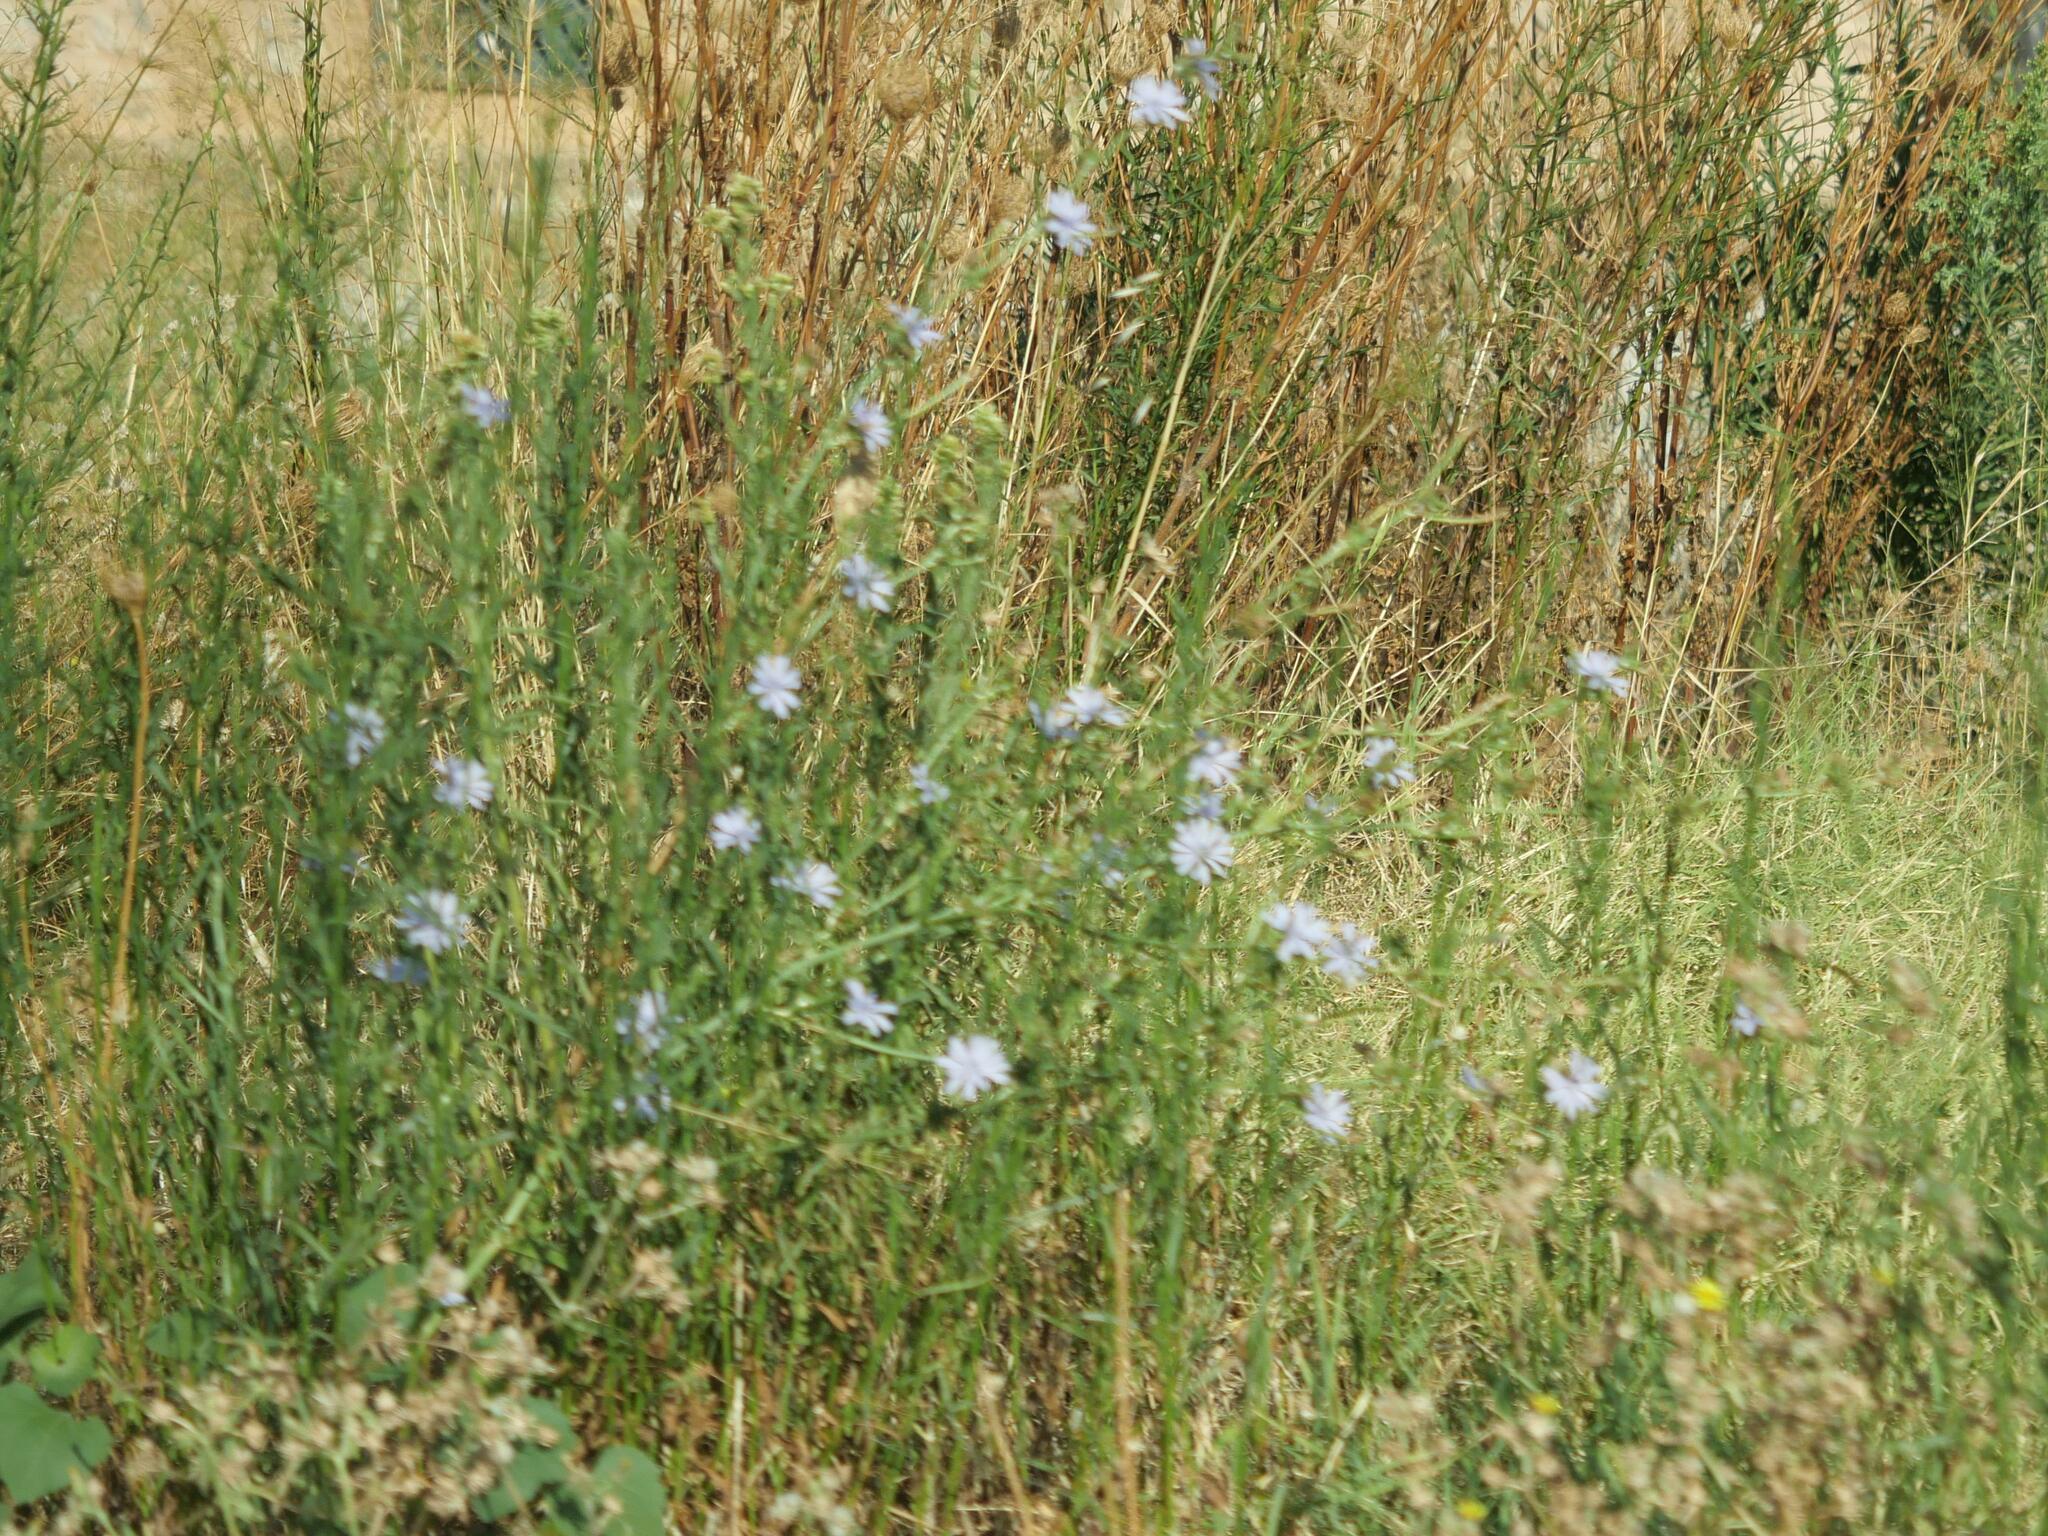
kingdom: Plantae
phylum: Tracheophyta
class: Magnoliopsida
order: Asterales
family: Asteraceae
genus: Cichorium
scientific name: Cichorium intybus
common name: Chicory
